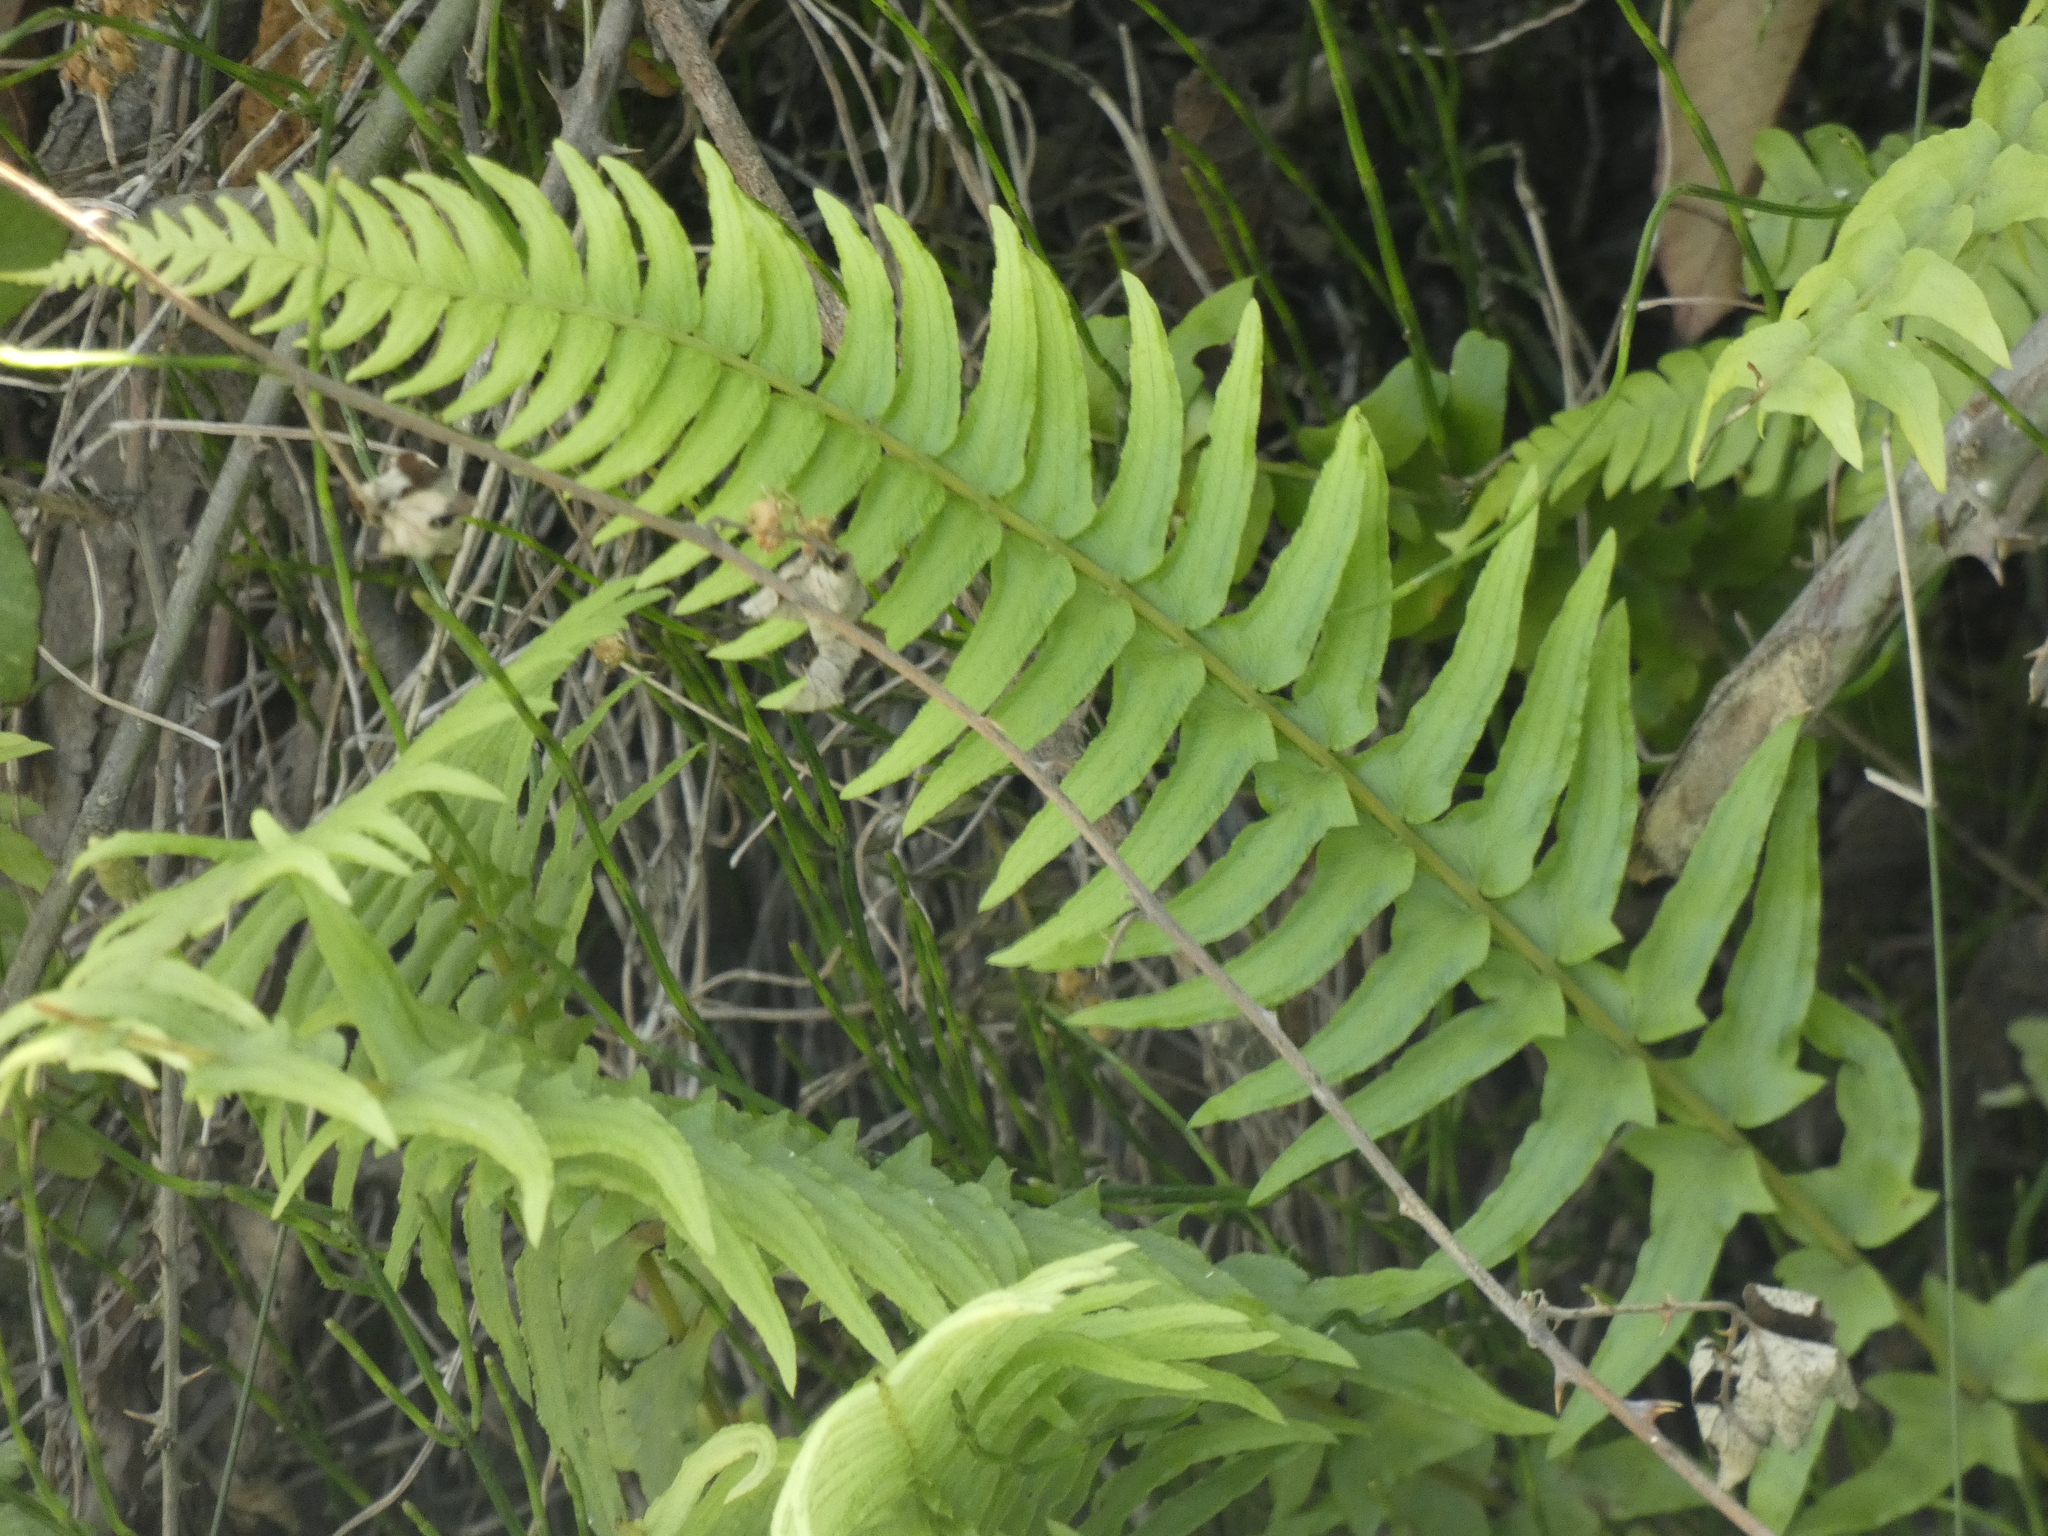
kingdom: Plantae
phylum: Tracheophyta
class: Polypodiopsida
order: Polypodiales
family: Blechnaceae
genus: Blechnum
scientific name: Blechnum hastatum
